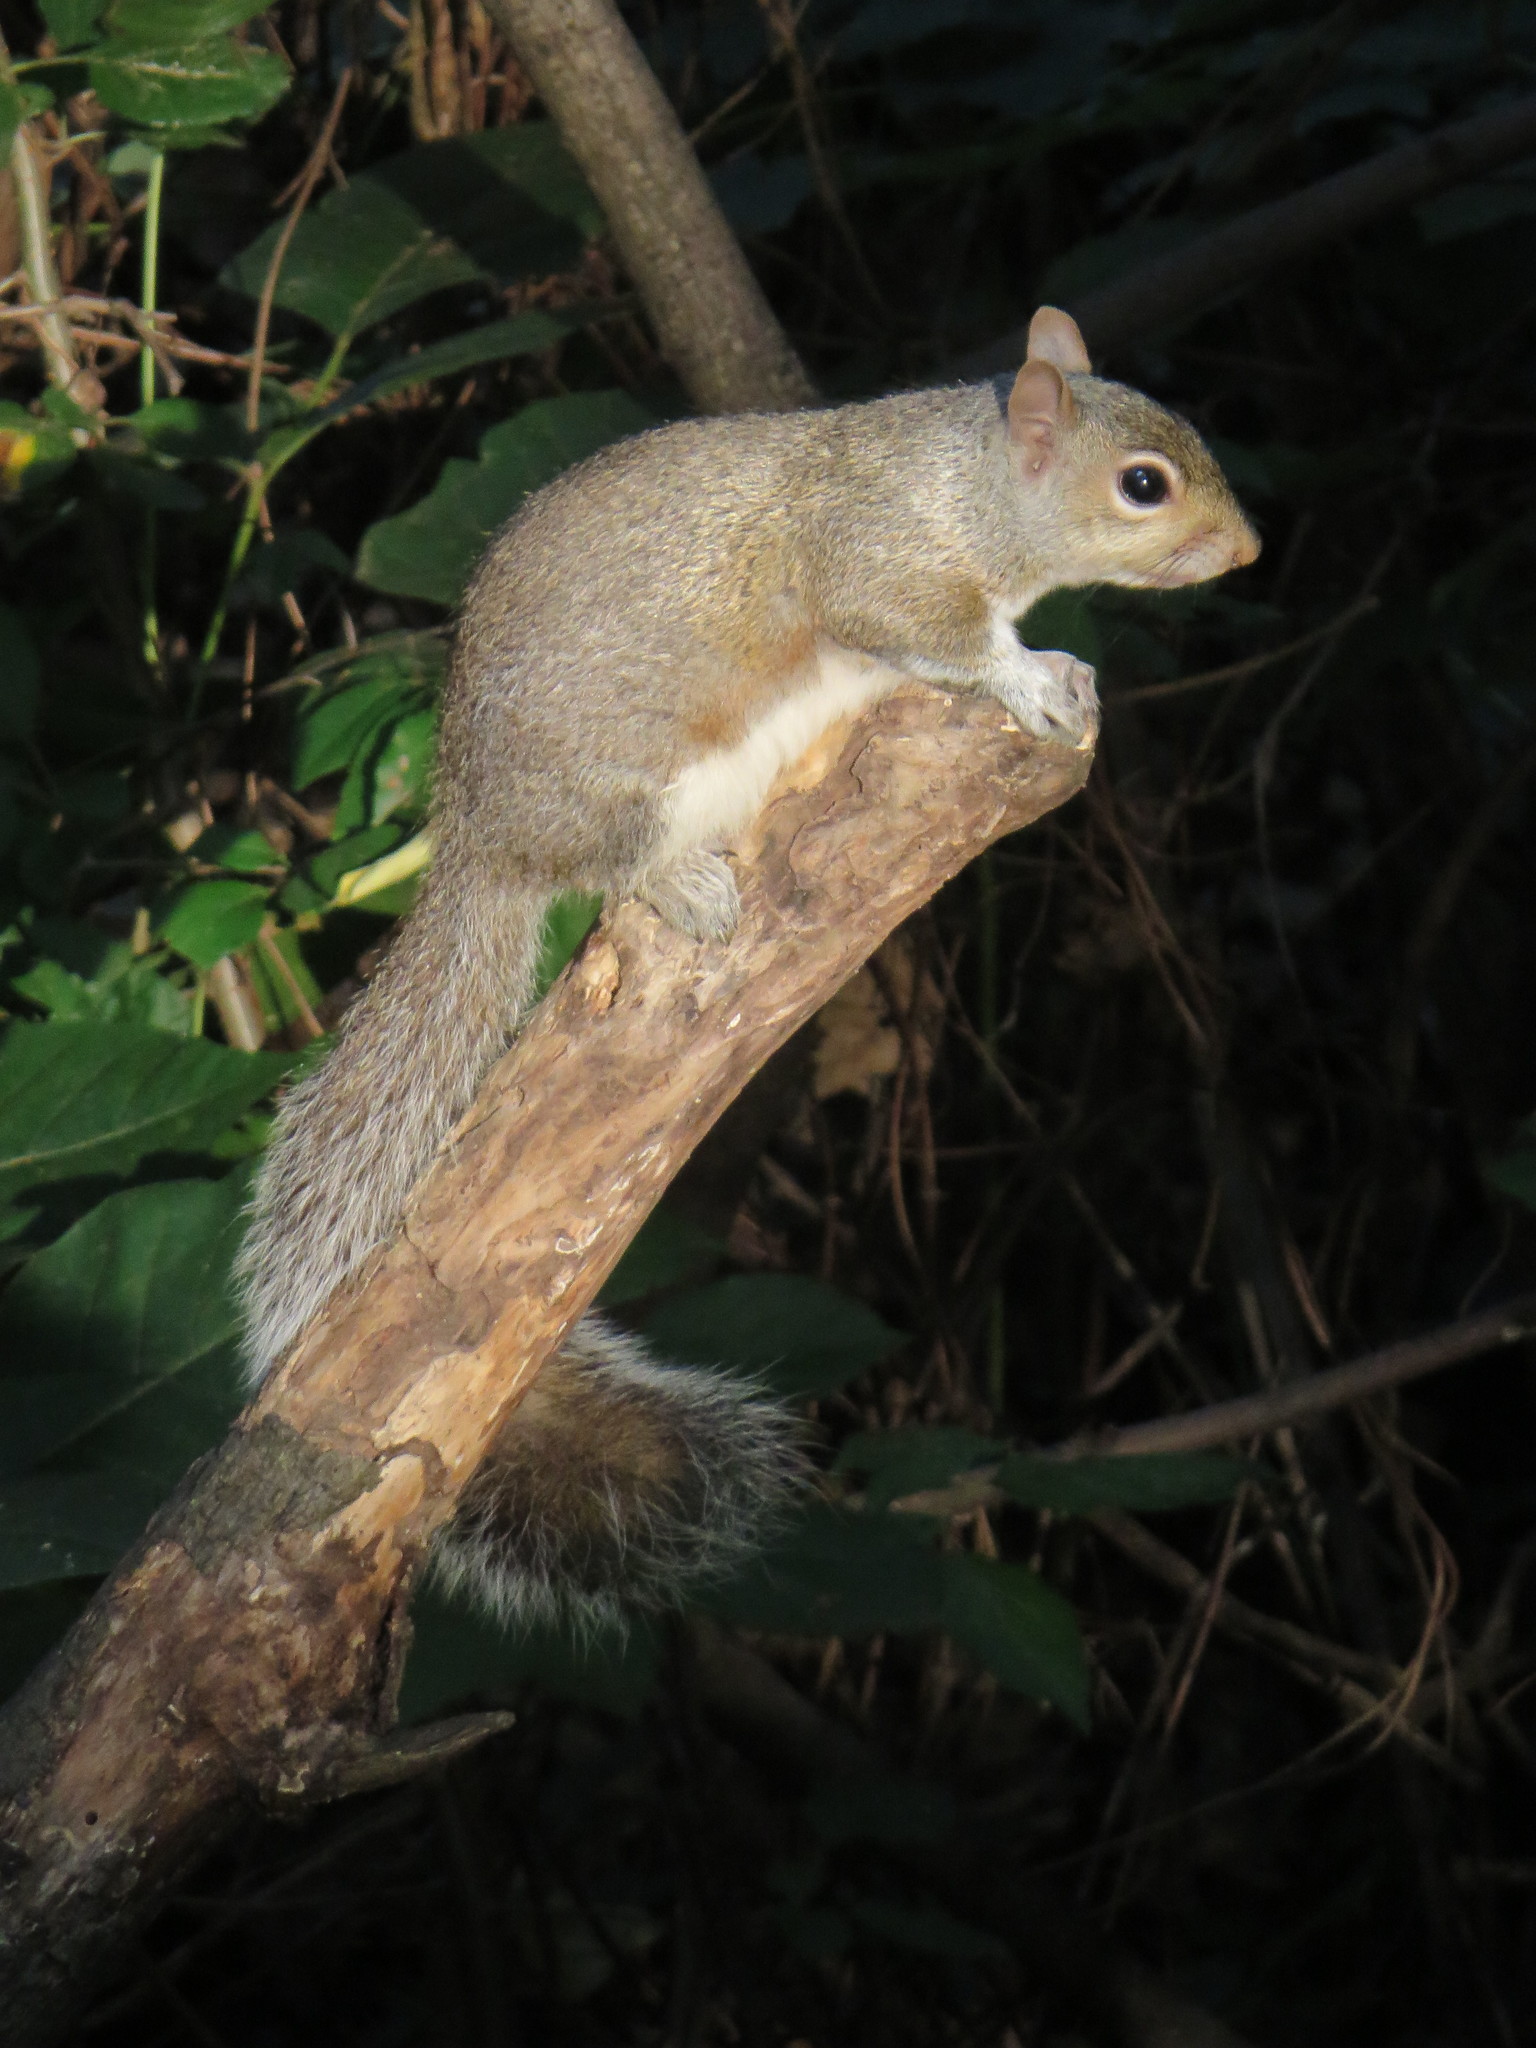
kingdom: Animalia
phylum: Chordata
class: Mammalia
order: Rodentia
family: Sciuridae
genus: Sciurus
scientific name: Sciurus carolinensis
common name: Eastern gray squirrel
